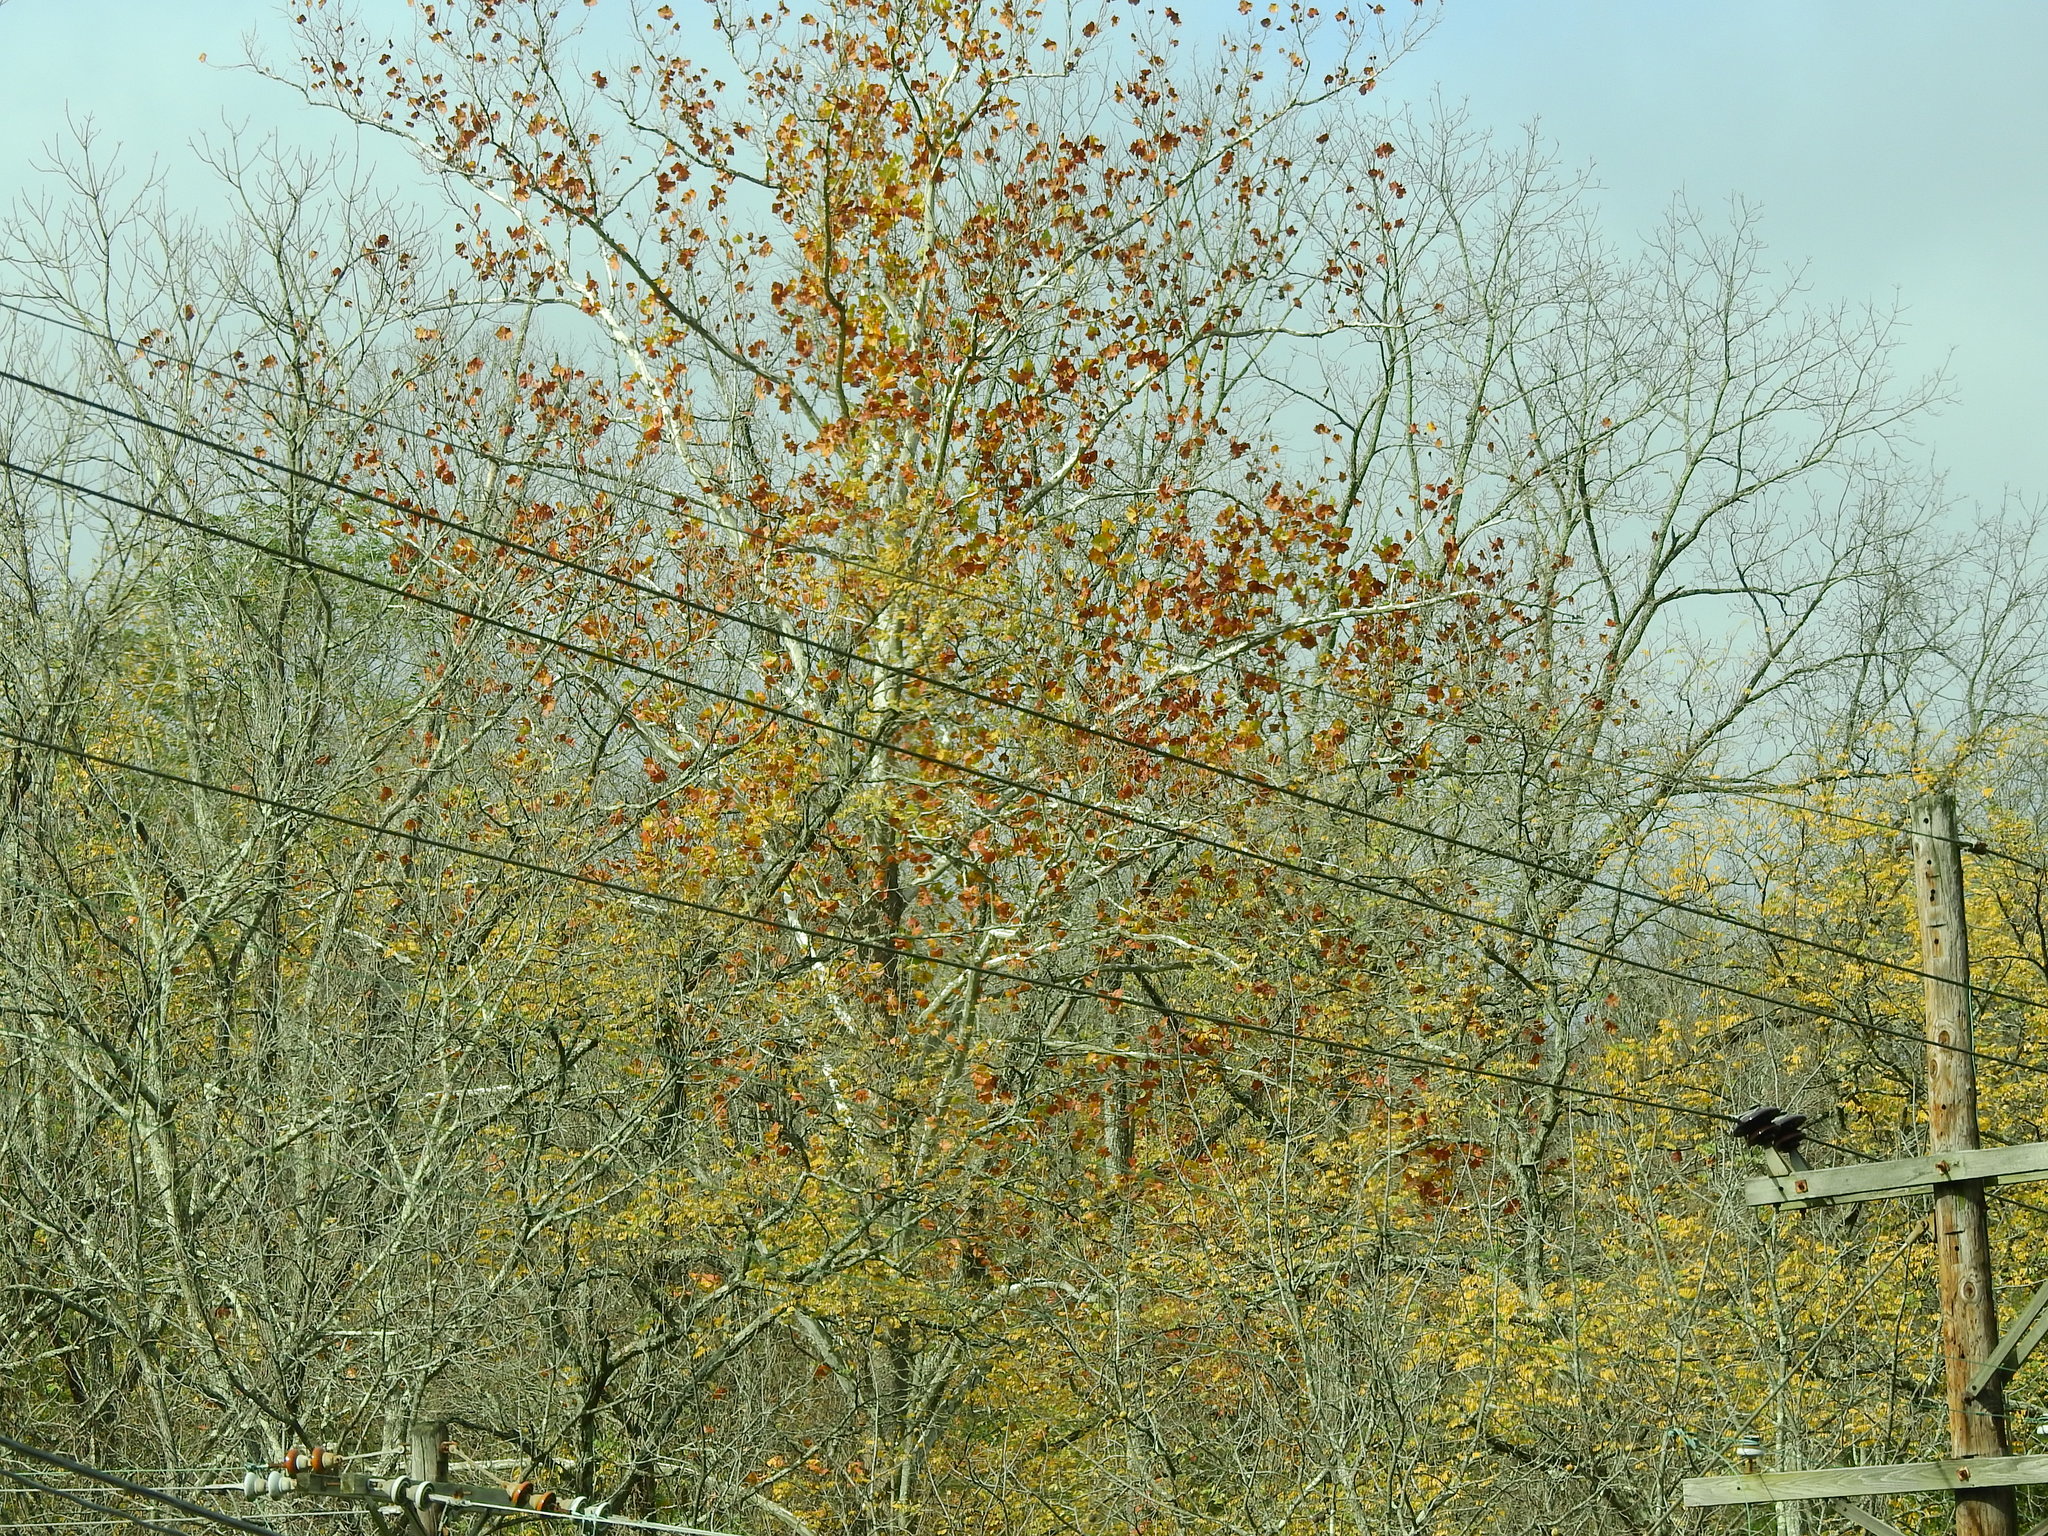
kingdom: Plantae
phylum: Tracheophyta
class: Magnoliopsida
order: Proteales
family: Platanaceae
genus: Platanus
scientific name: Platanus occidentalis
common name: American sycamore
